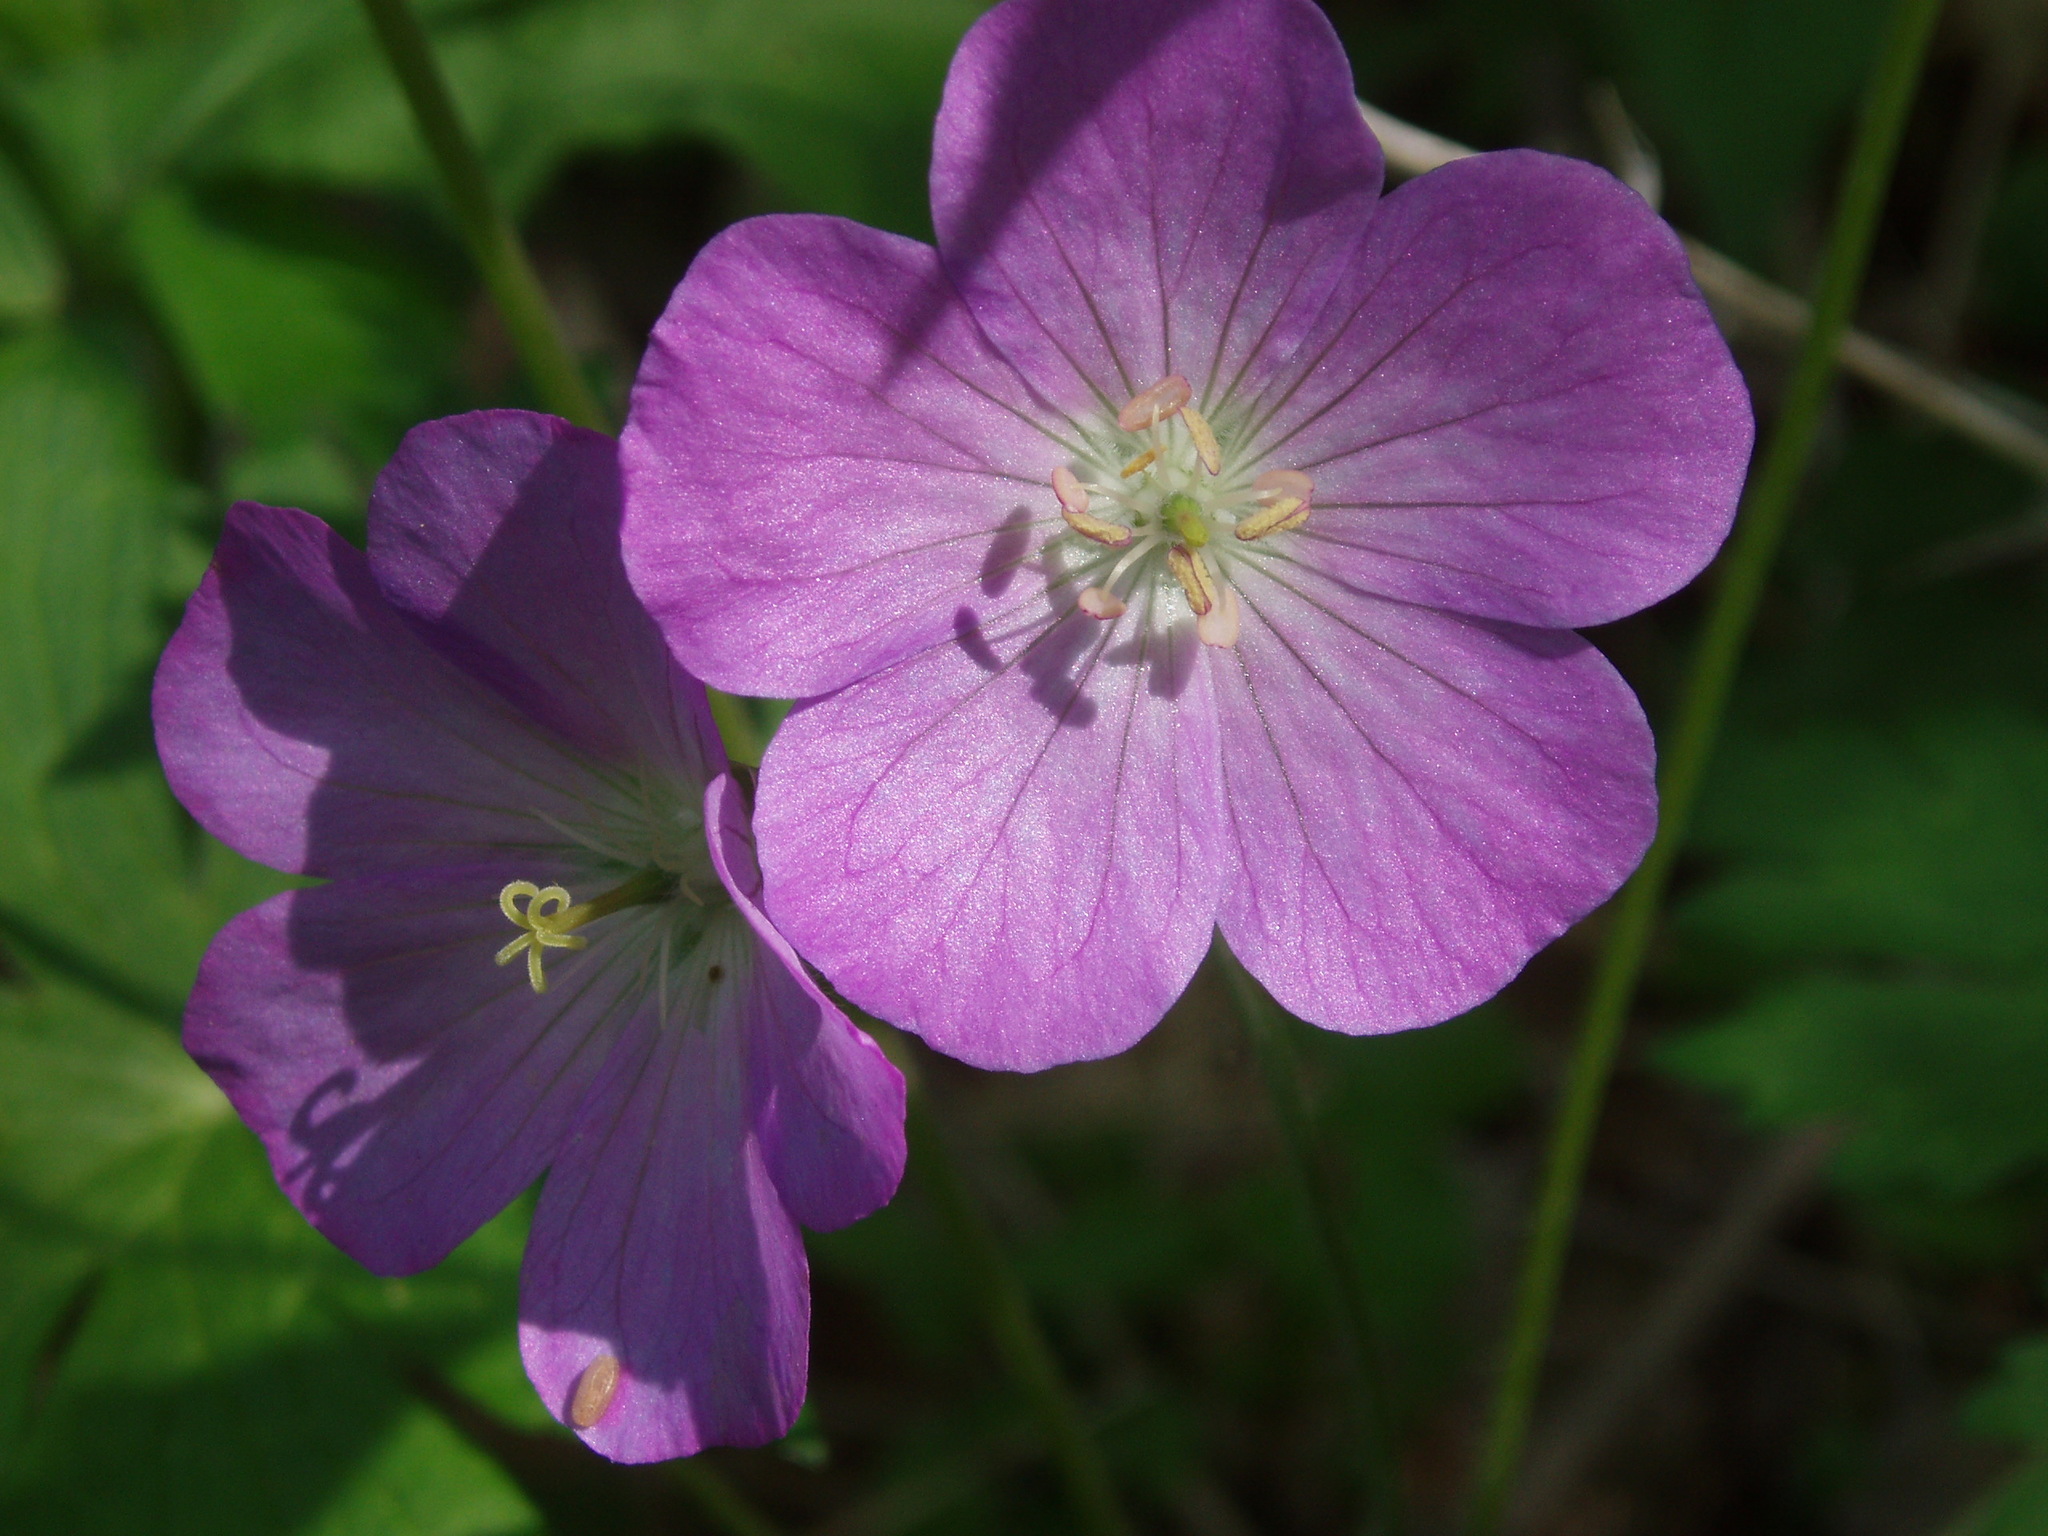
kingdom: Plantae
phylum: Tracheophyta
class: Magnoliopsida
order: Geraniales
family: Geraniaceae
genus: Geranium
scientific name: Geranium maculatum
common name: Spotted geranium
